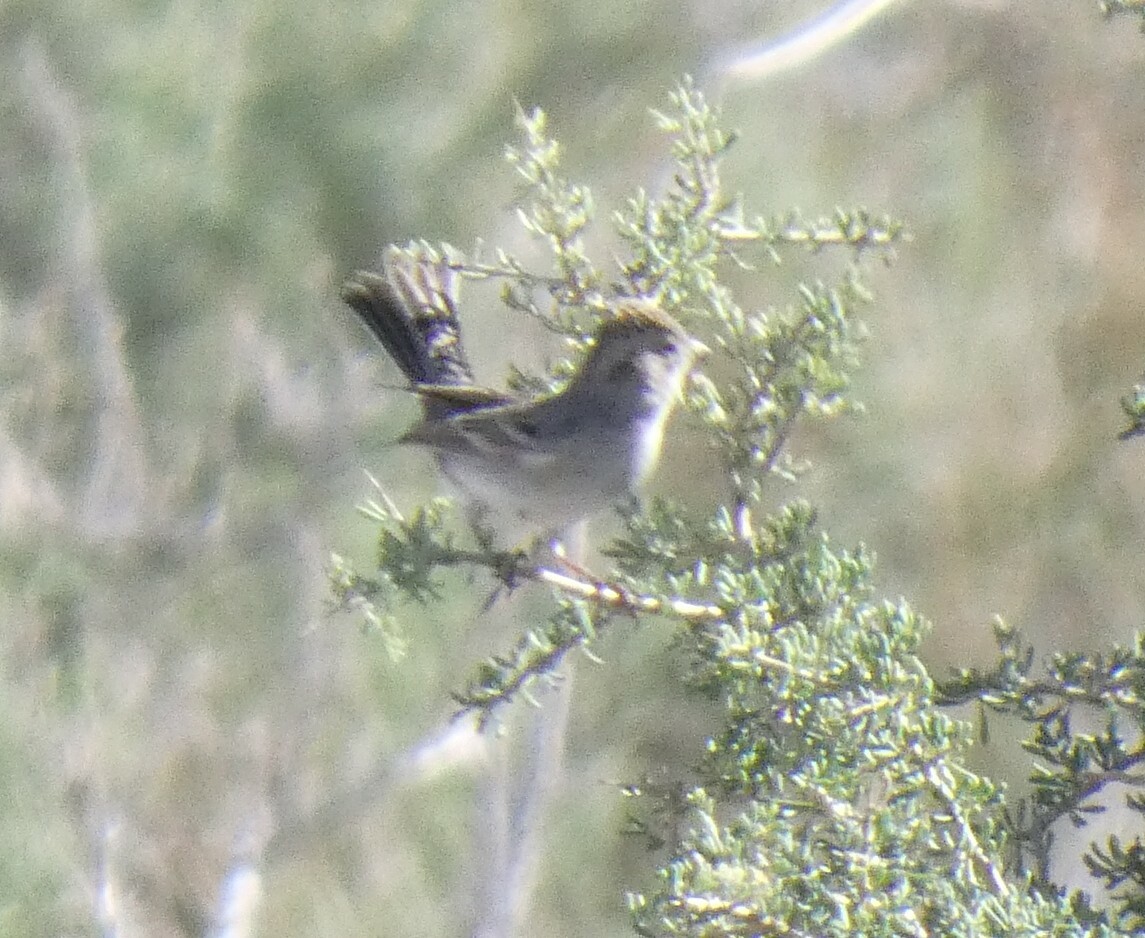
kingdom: Animalia
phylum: Chordata
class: Aves
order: Passeriformes
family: Passerellidae
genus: Spizella
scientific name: Spizella breweri
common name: Brewer's sparrow
